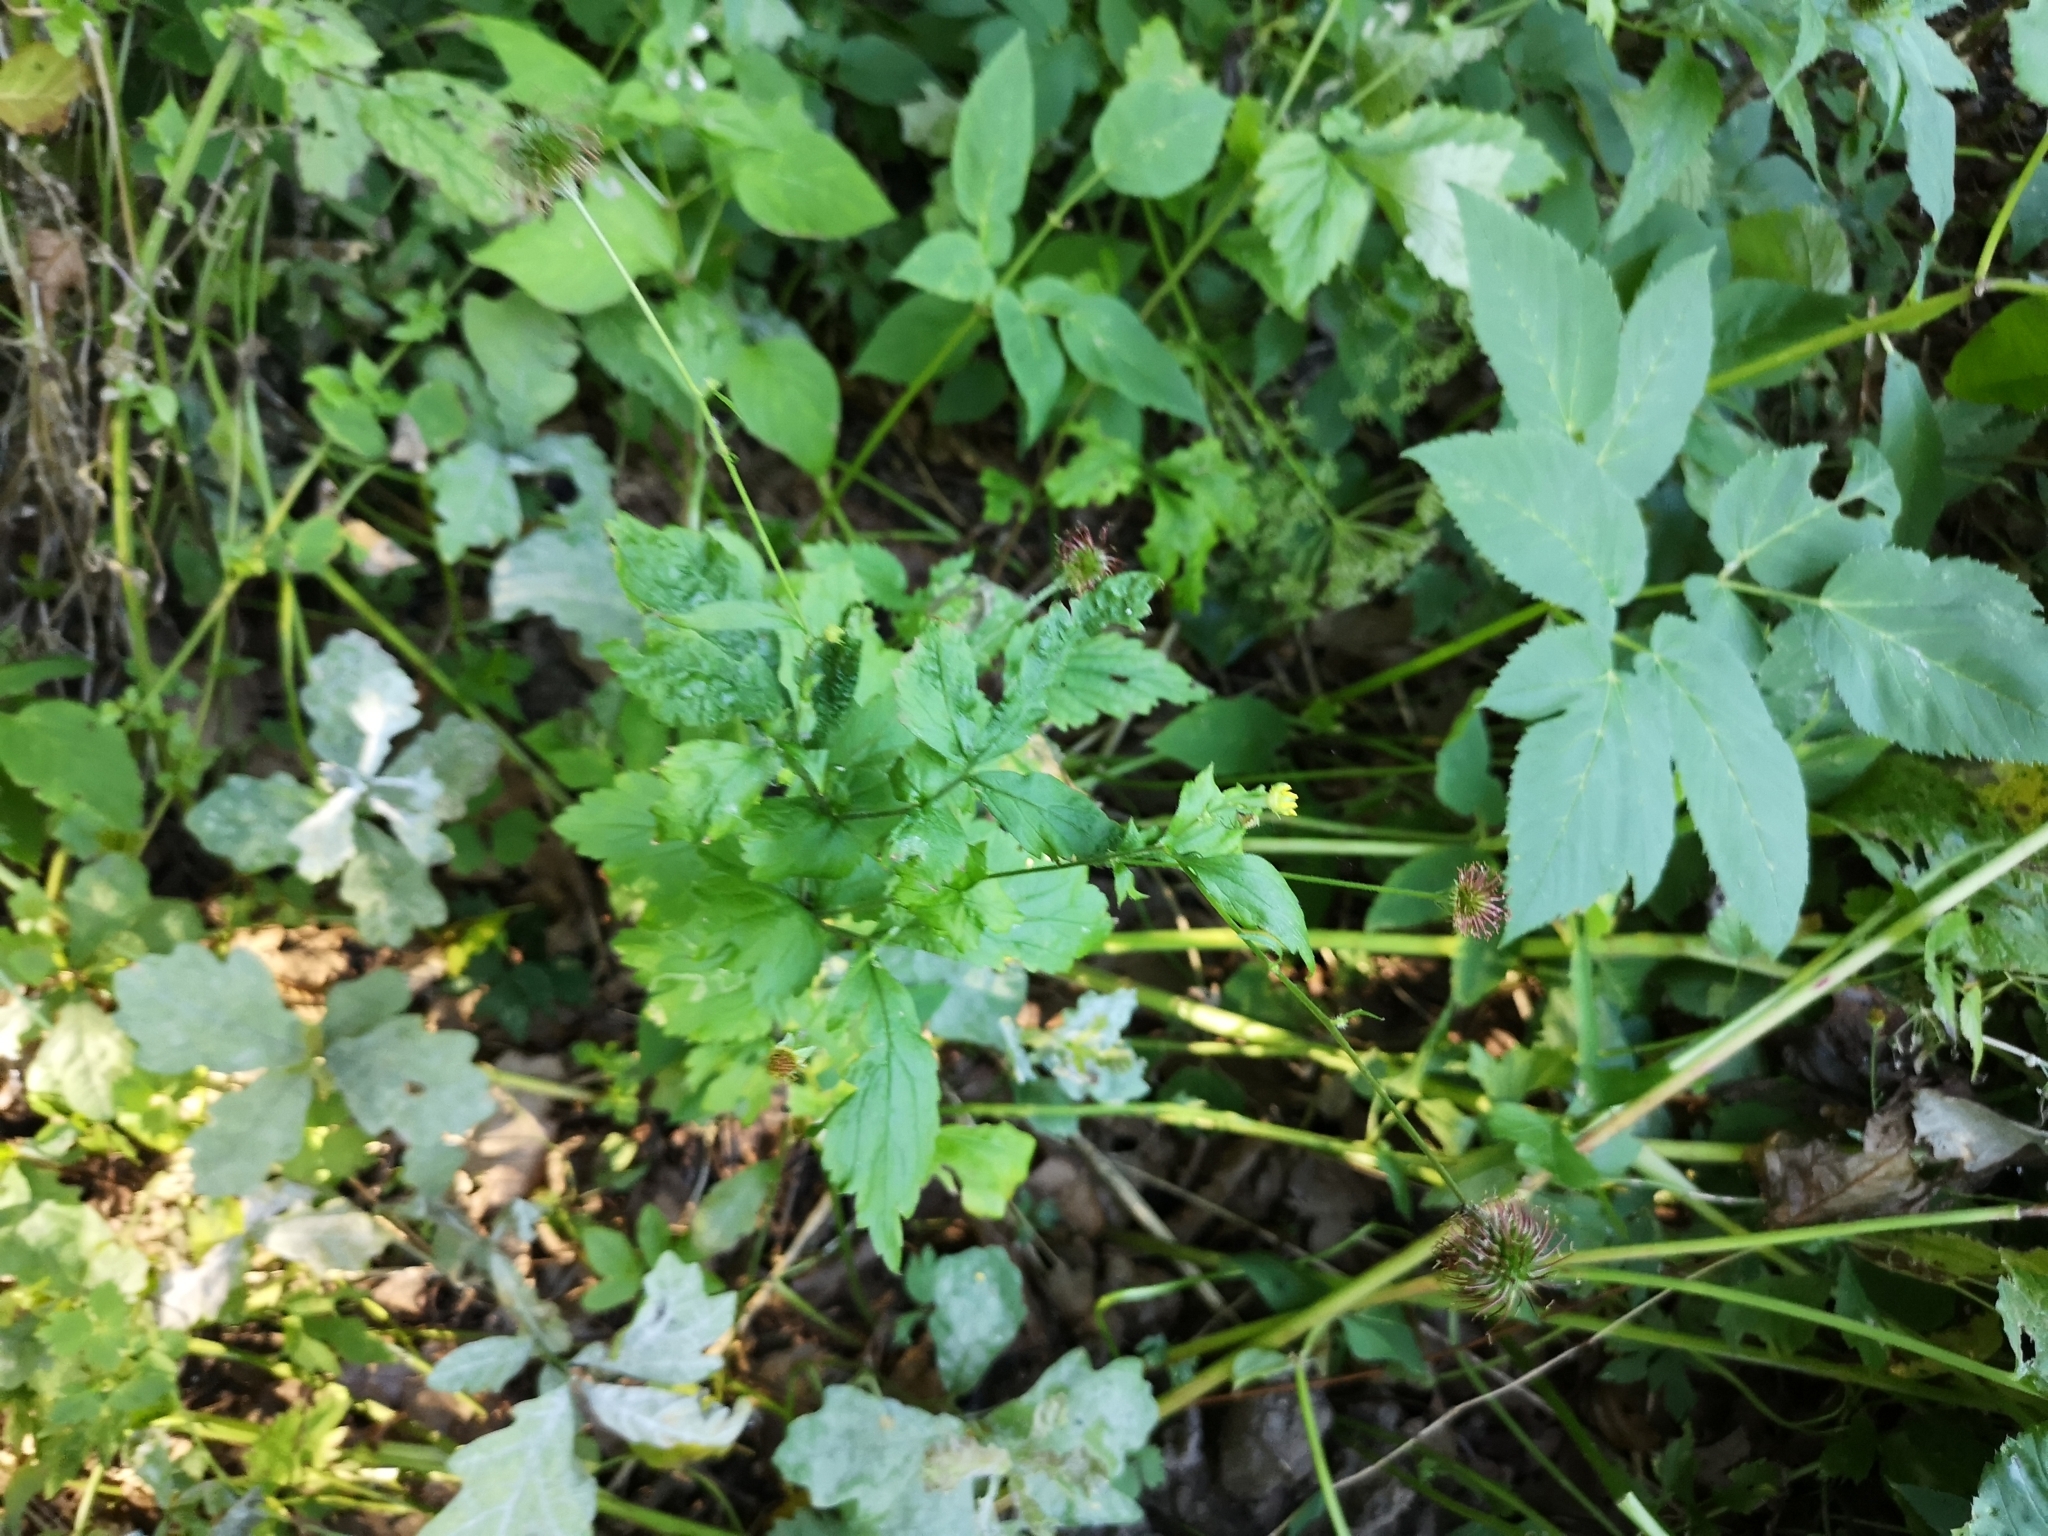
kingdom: Plantae
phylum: Tracheophyta
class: Magnoliopsida
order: Rosales
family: Rosaceae
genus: Geum
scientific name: Geum urbanum
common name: Wood avens
